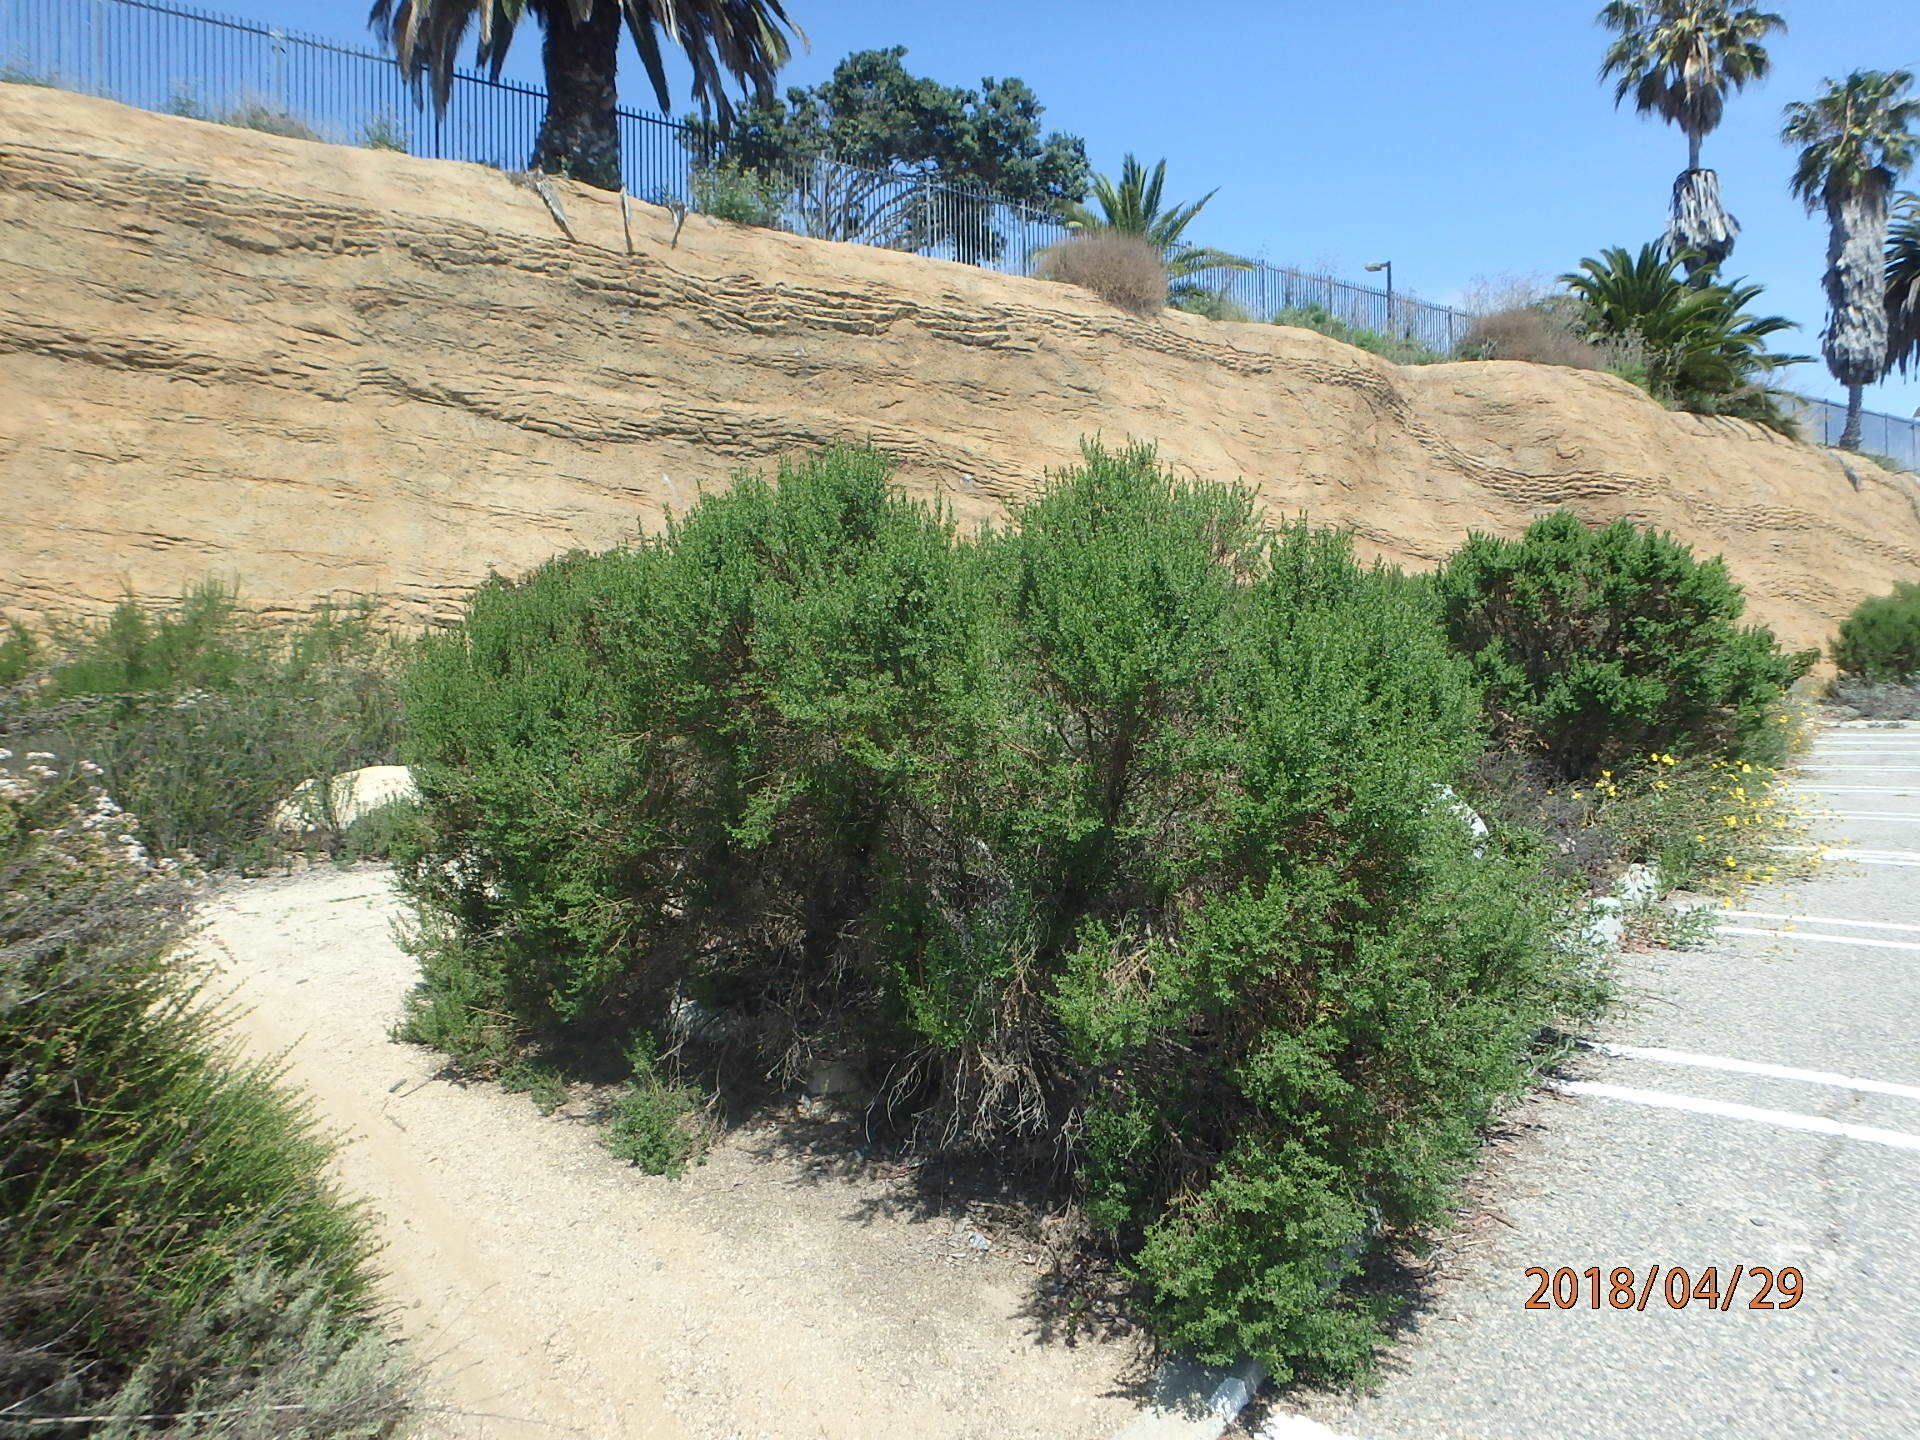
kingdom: Plantae
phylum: Tracheophyta
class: Magnoliopsida
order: Asterales
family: Asteraceae
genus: Baccharis
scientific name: Baccharis pilularis
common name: Coyotebrush
